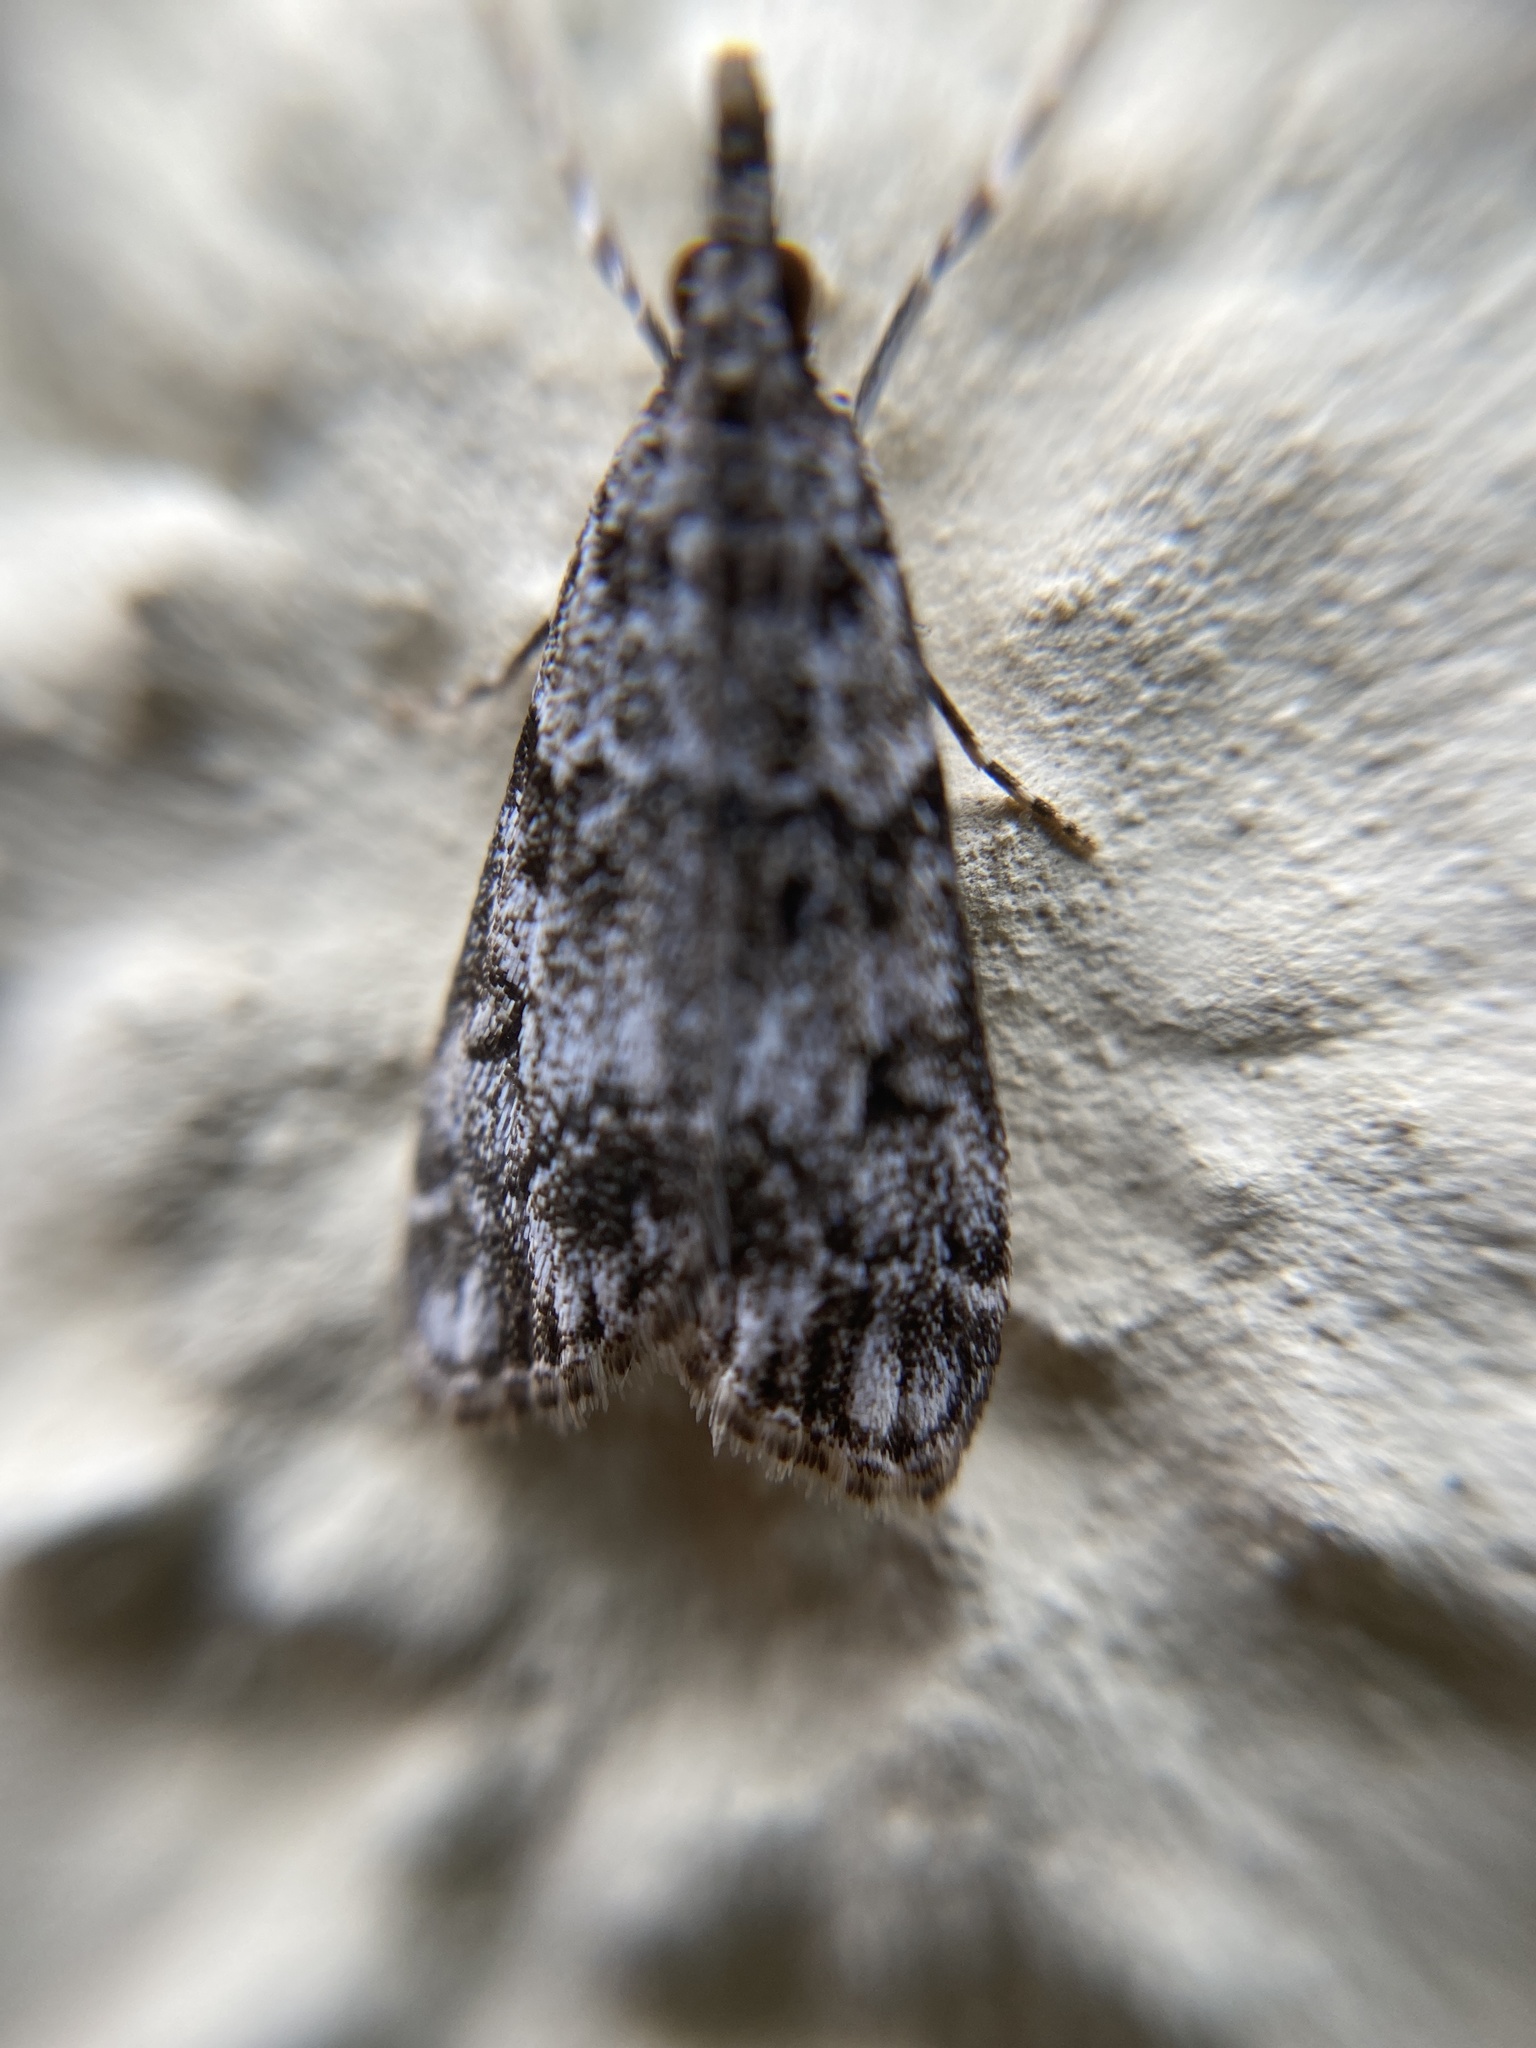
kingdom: Animalia
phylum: Arthropoda
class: Insecta
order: Lepidoptera
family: Crambidae
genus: Eudonia
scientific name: Eudonia mercurella
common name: Small grey
